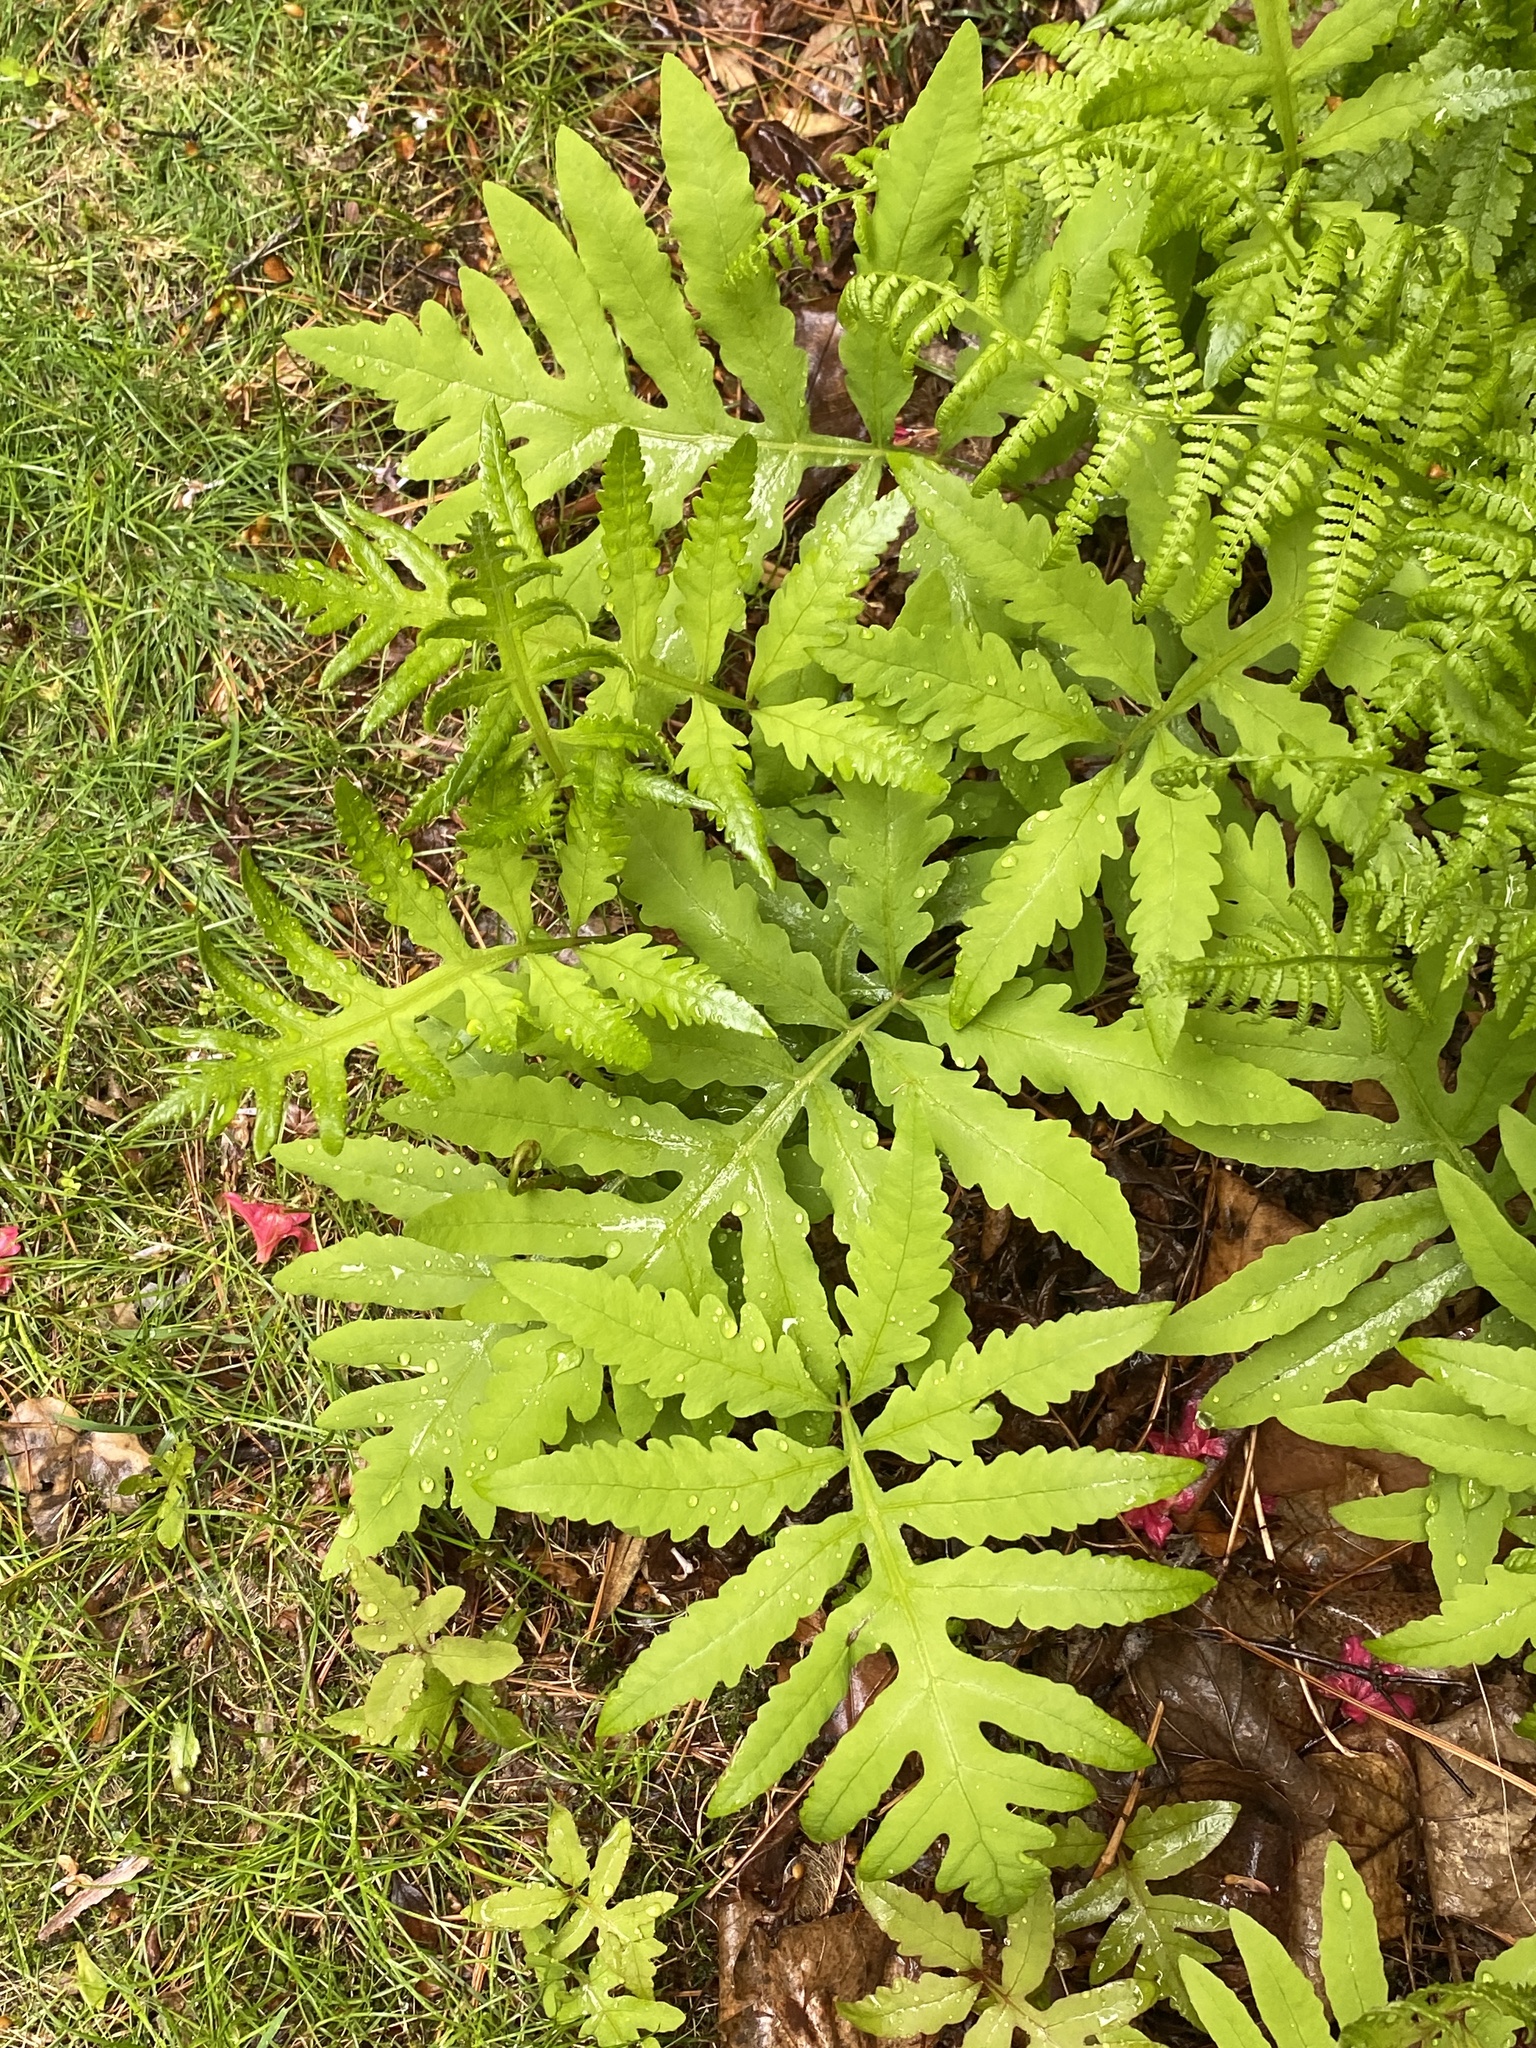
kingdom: Plantae
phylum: Tracheophyta
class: Polypodiopsida
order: Polypodiales
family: Onocleaceae
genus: Onoclea
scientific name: Onoclea sensibilis
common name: Sensitive fern
